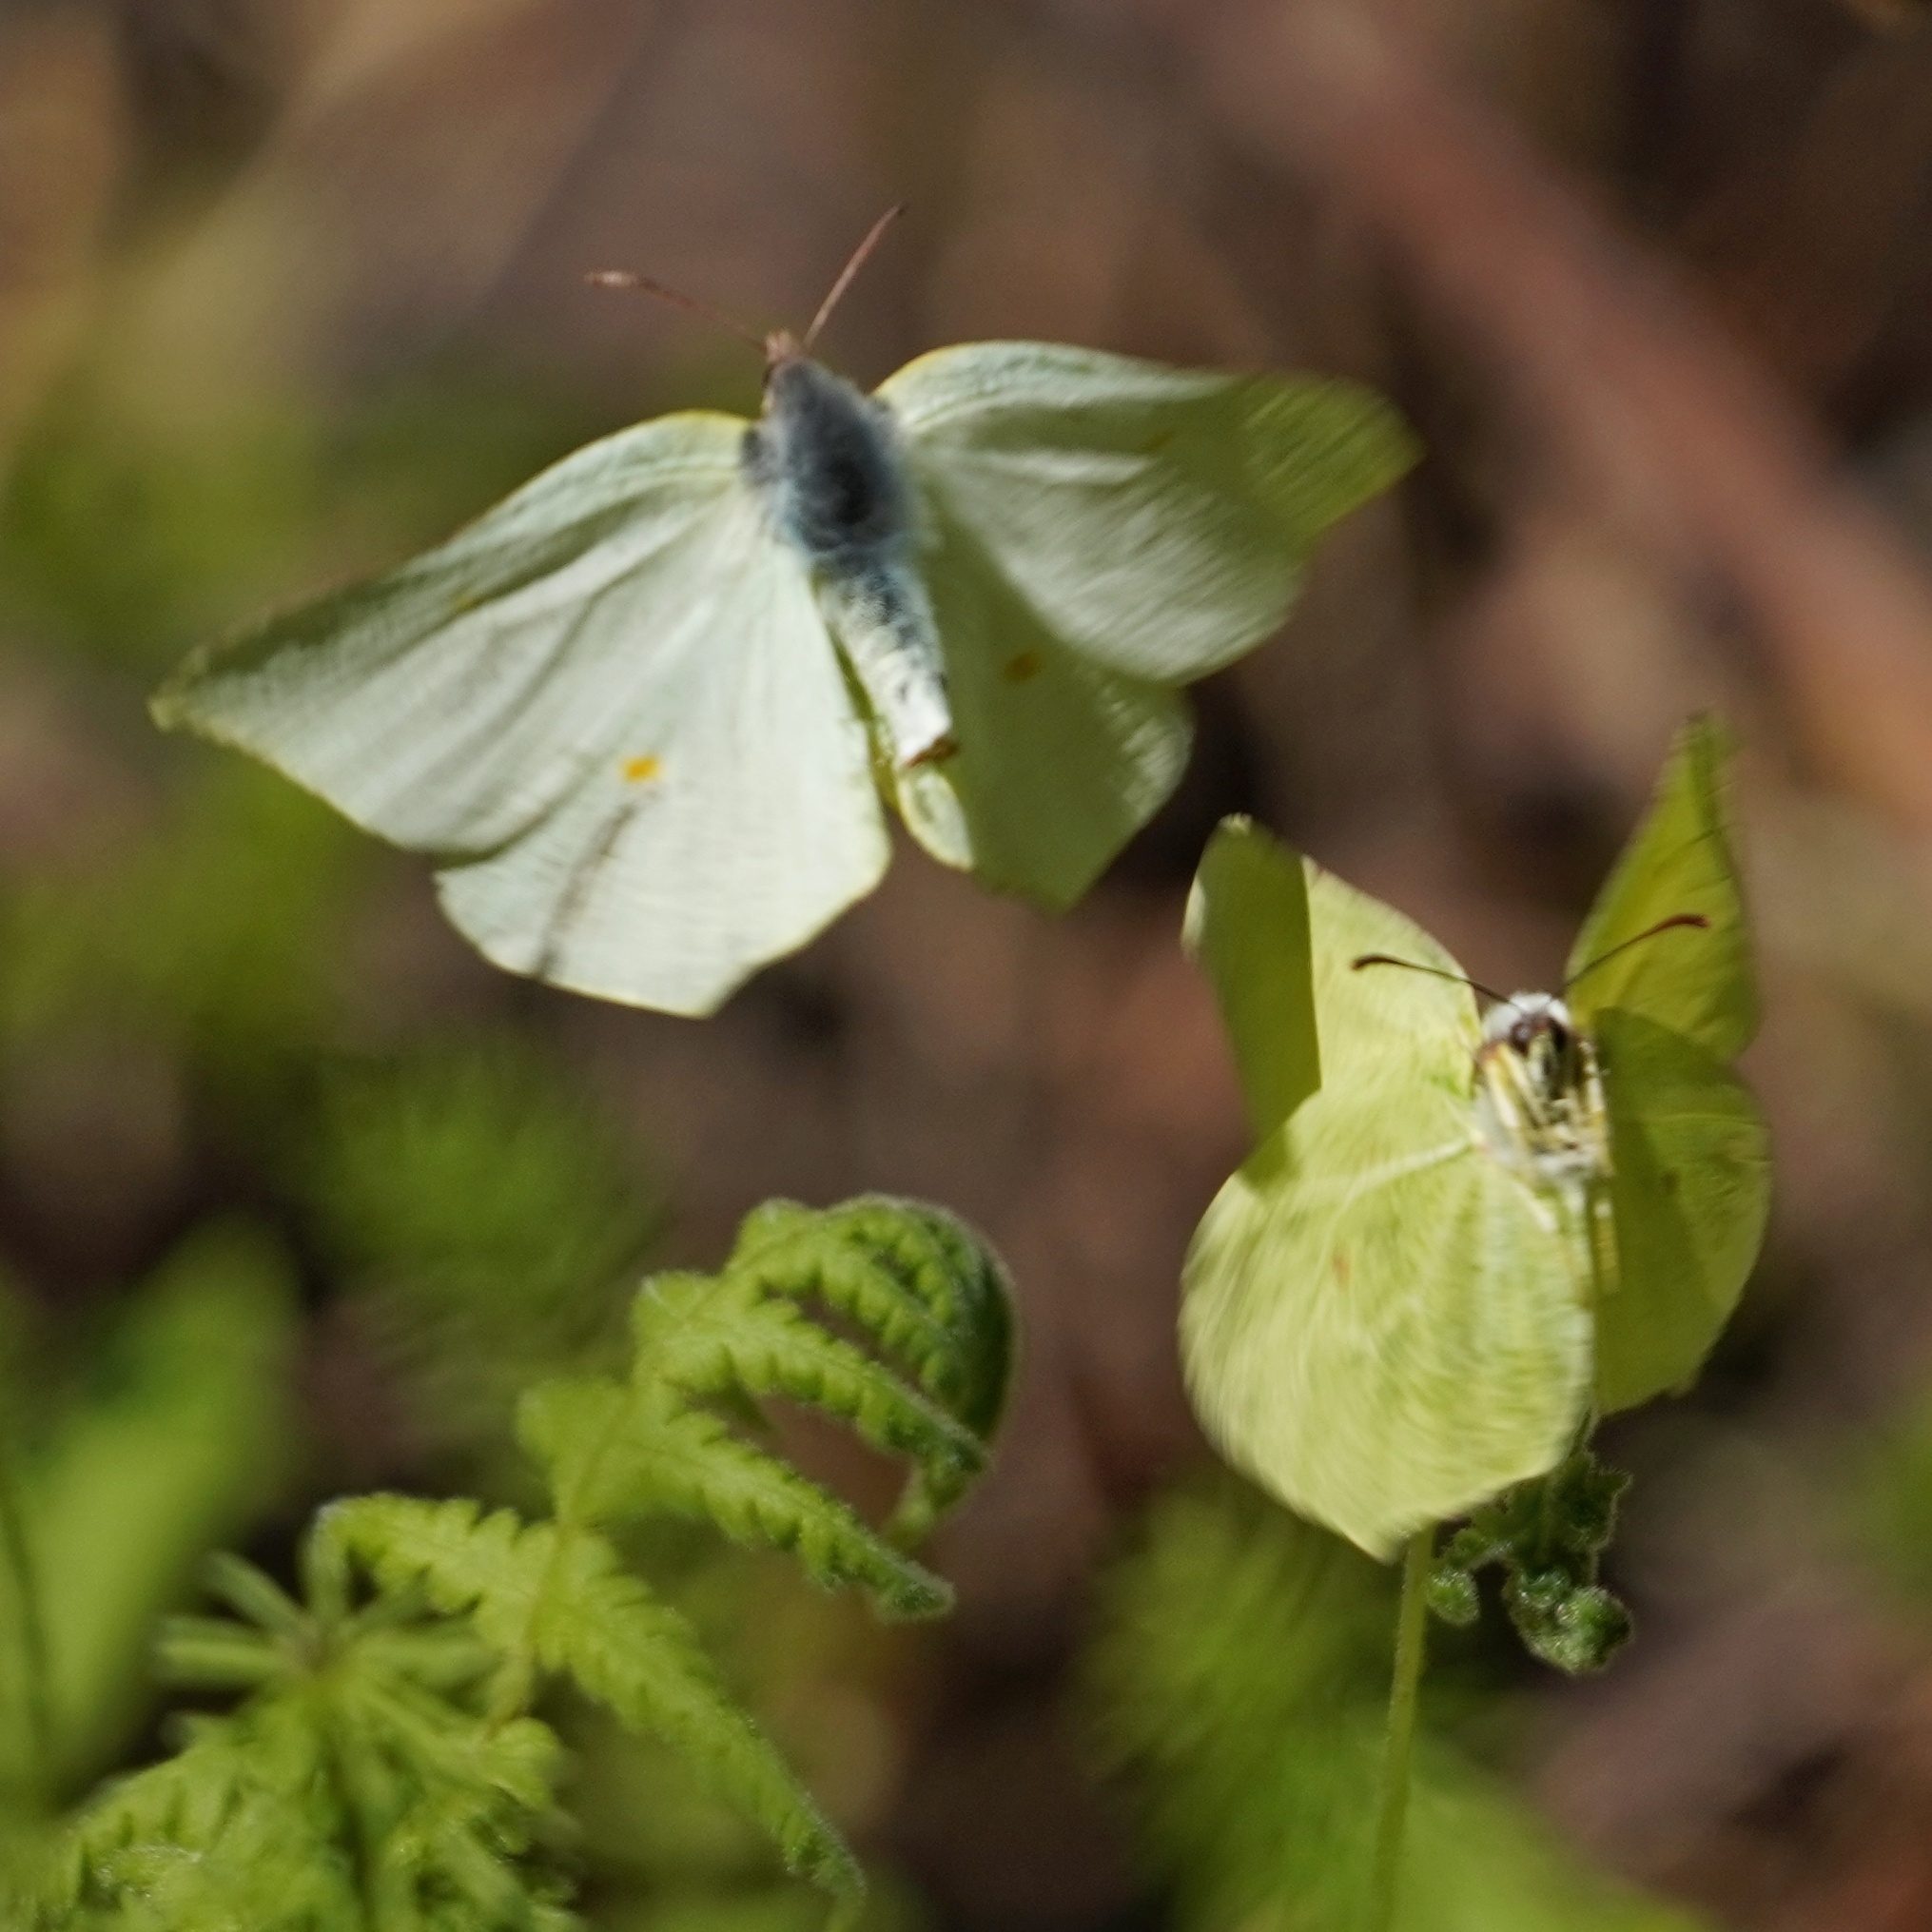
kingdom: Animalia
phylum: Arthropoda
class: Insecta
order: Lepidoptera
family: Pieridae
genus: Gonepteryx
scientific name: Gonepteryx rhamni
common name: Brimstone
